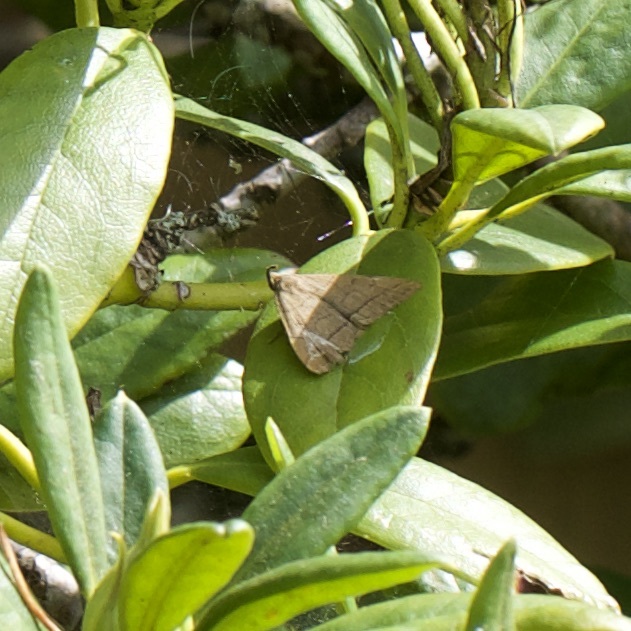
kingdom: Animalia
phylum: Arthropoda
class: Insecta
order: Lepidoptera
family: Erebidae
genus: Herminia
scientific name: Herminia tarsipennalis
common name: Fan-foot
